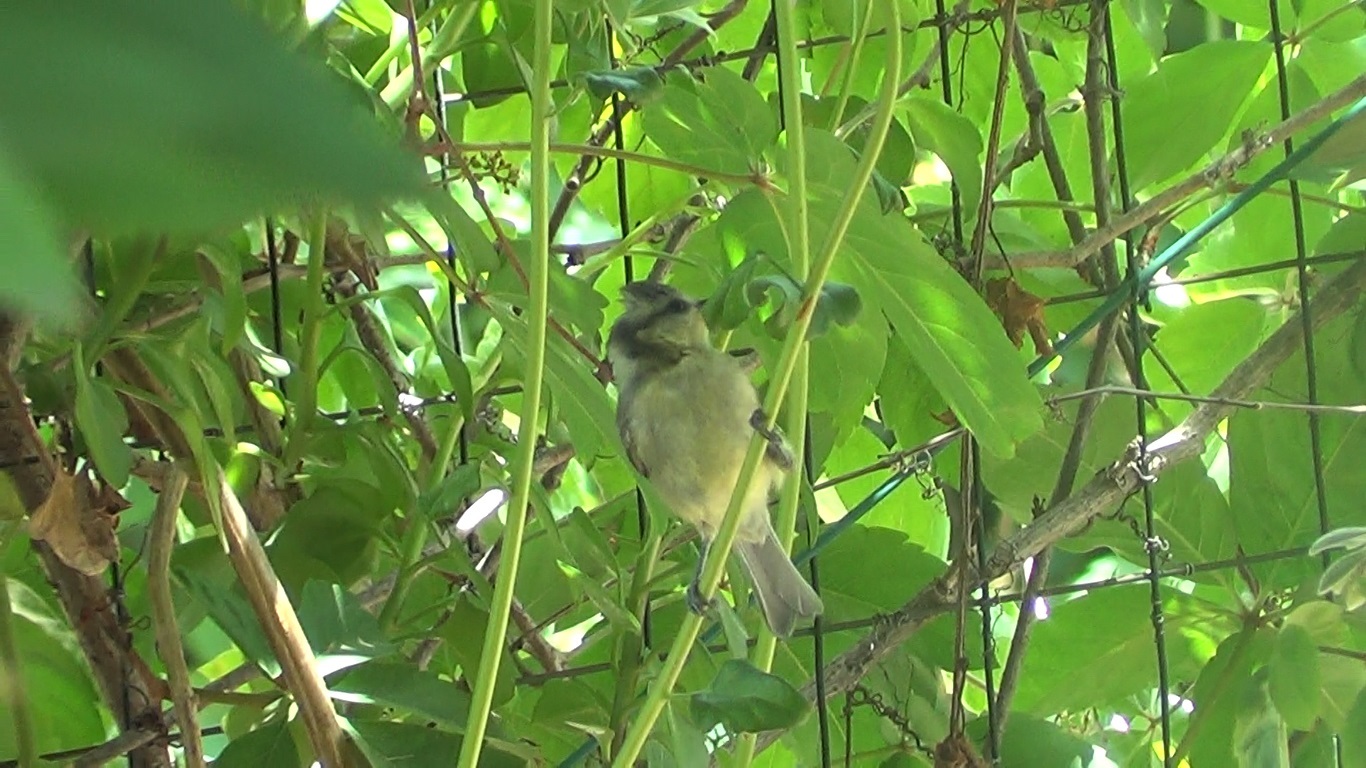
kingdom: Animalia
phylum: Chordata
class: Aves
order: Passeriformes
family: Paridae
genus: Cyanistes
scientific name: Cyanistes caeruleus
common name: Eurasian blue tit
